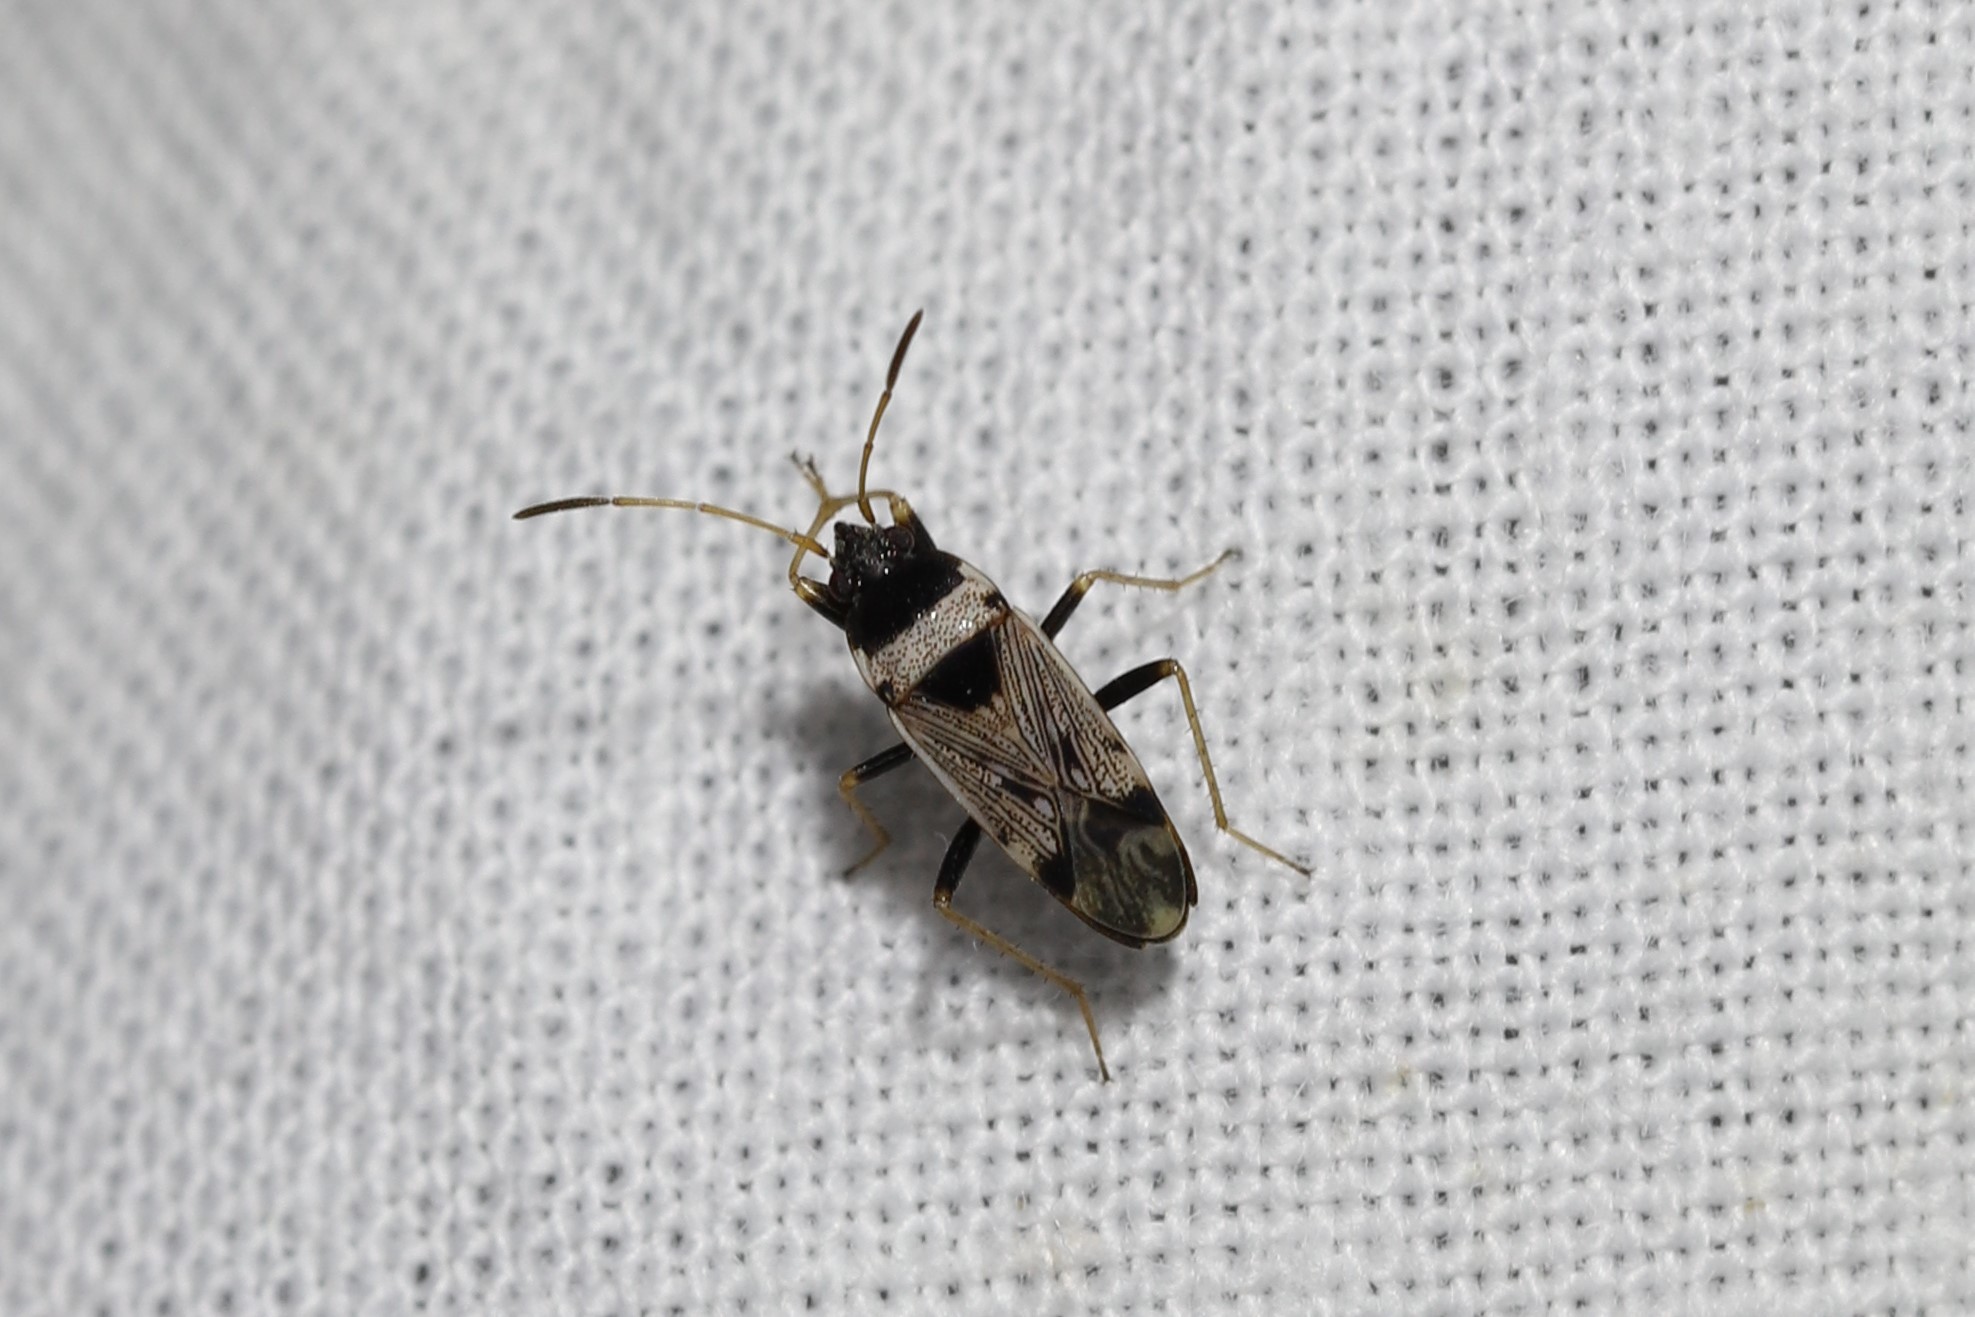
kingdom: Animalia
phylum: Arthropoda
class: Insecta
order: Hemiptera
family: Rhyparochromidae
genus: Liolobus
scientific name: Liolobus sabulicola
